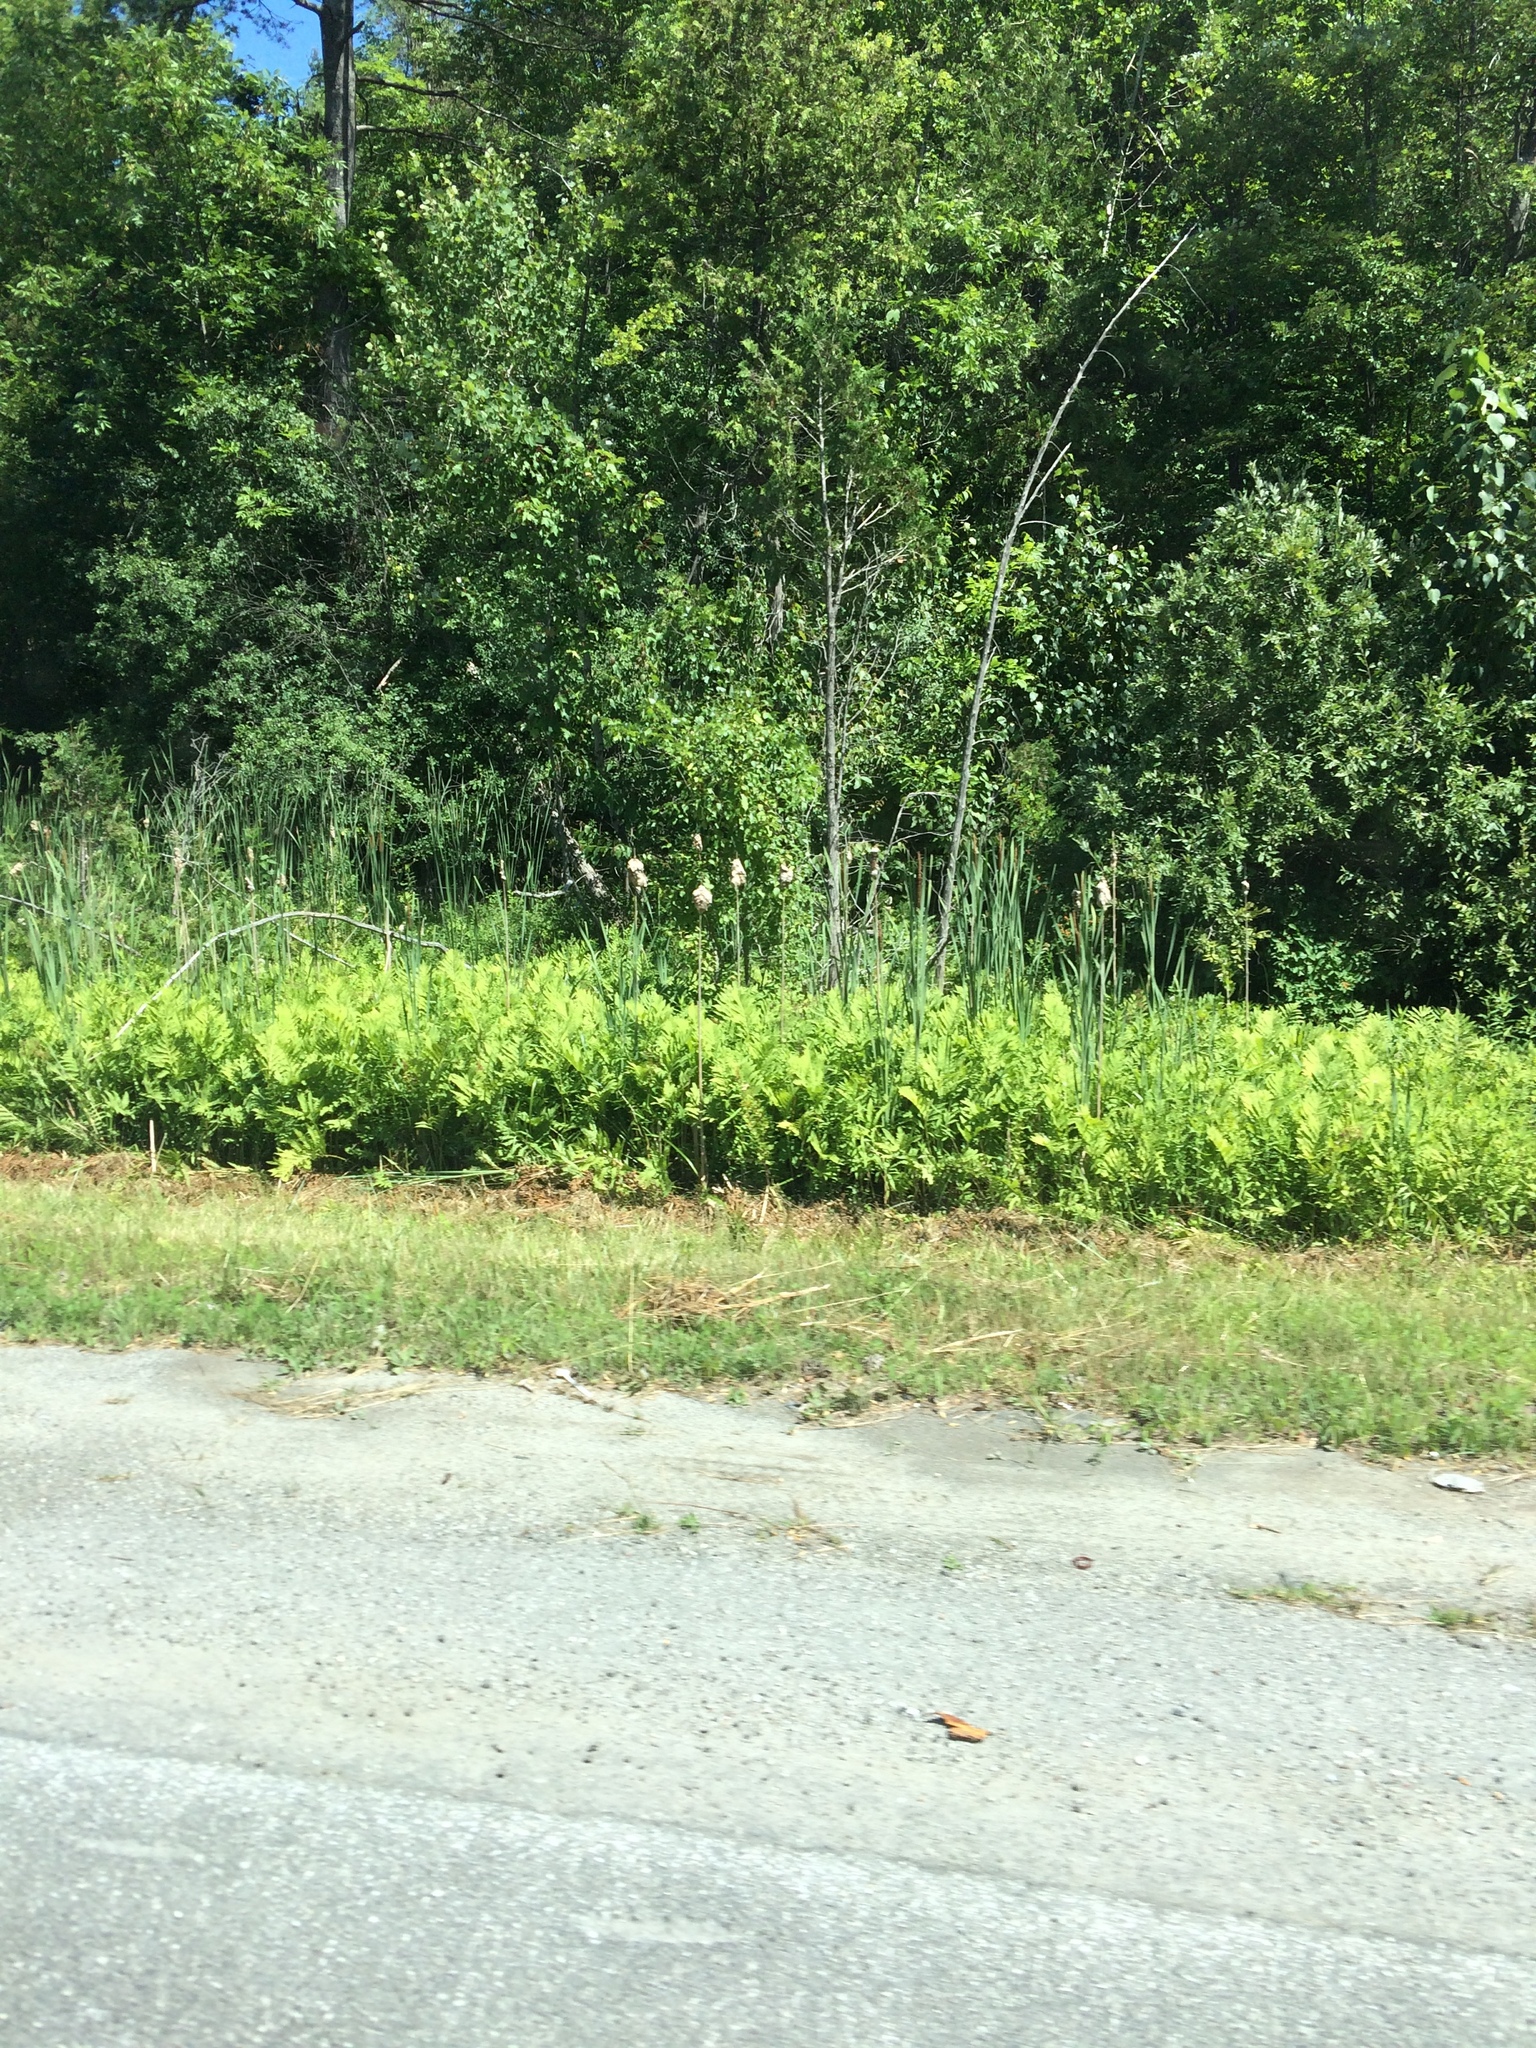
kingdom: Plantae
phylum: Tracheophyta
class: Polypodiopsida
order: Polypodiales
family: Onocleaceae
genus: Onoclea
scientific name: Onoclea sensibilis
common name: Sensitive fern
